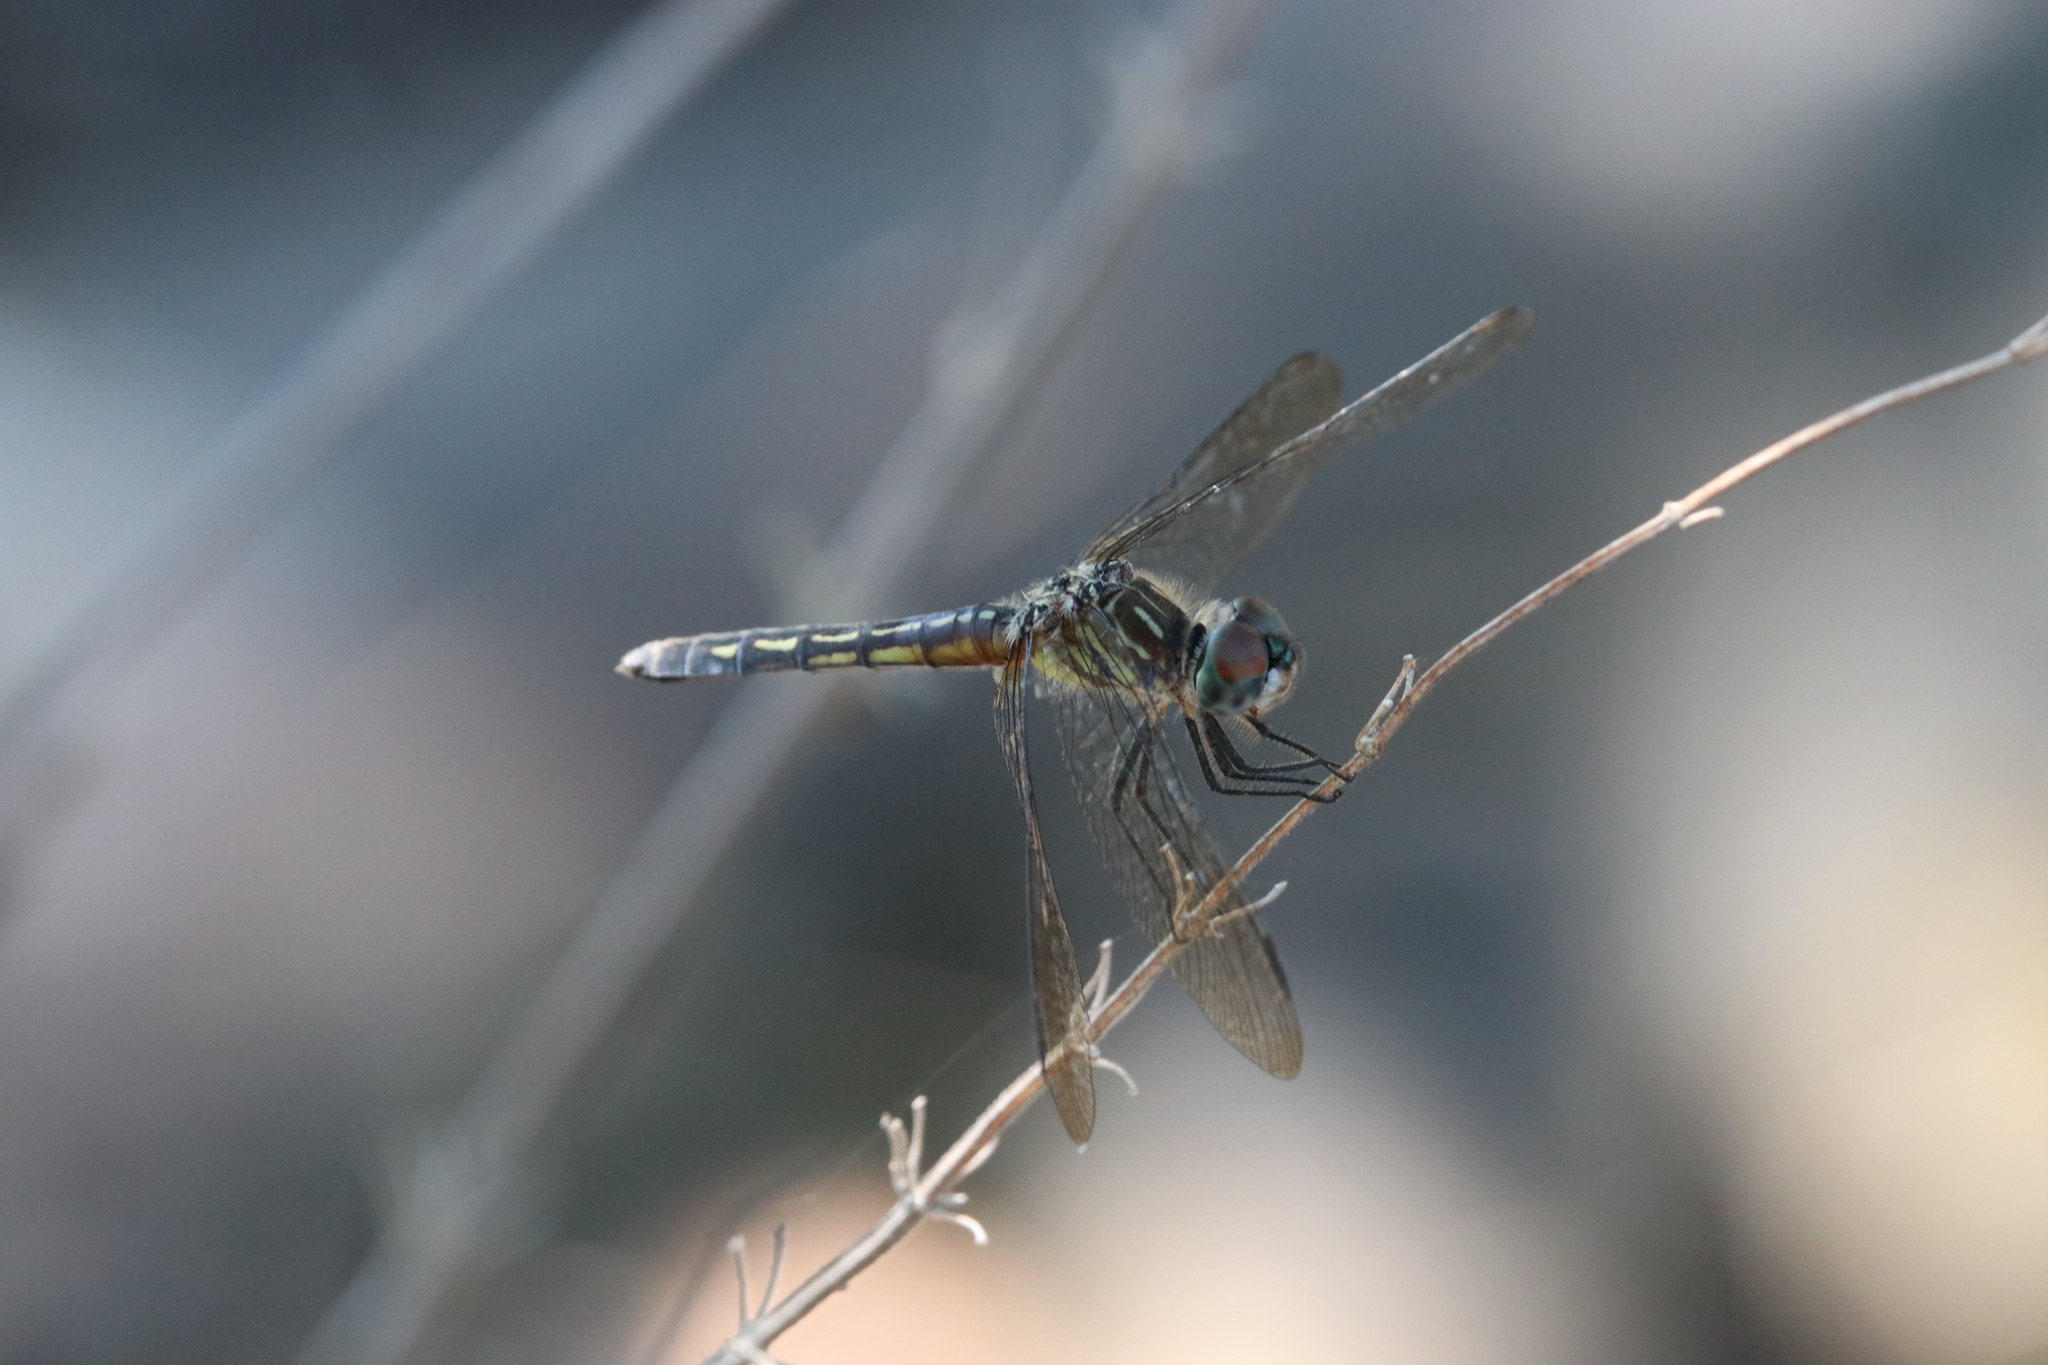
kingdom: Animalia
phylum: Arthropoda
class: Insecta
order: Odonata
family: Libellulidae
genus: Pachydiplax
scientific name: Pachydiplax longipennis
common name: Blue dasher
